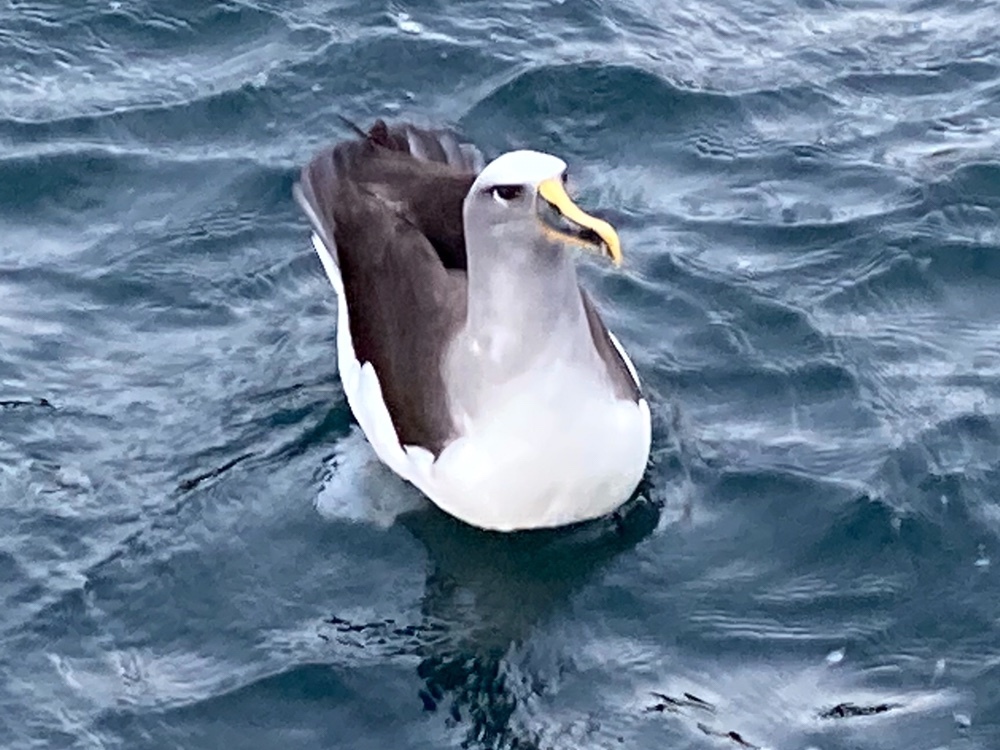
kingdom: Animalia
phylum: Chordata
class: Aves
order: Procellariiformes
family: Diomedeidae
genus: Thalassarche
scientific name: Thalassarche bulleri
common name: Buller's albatross
